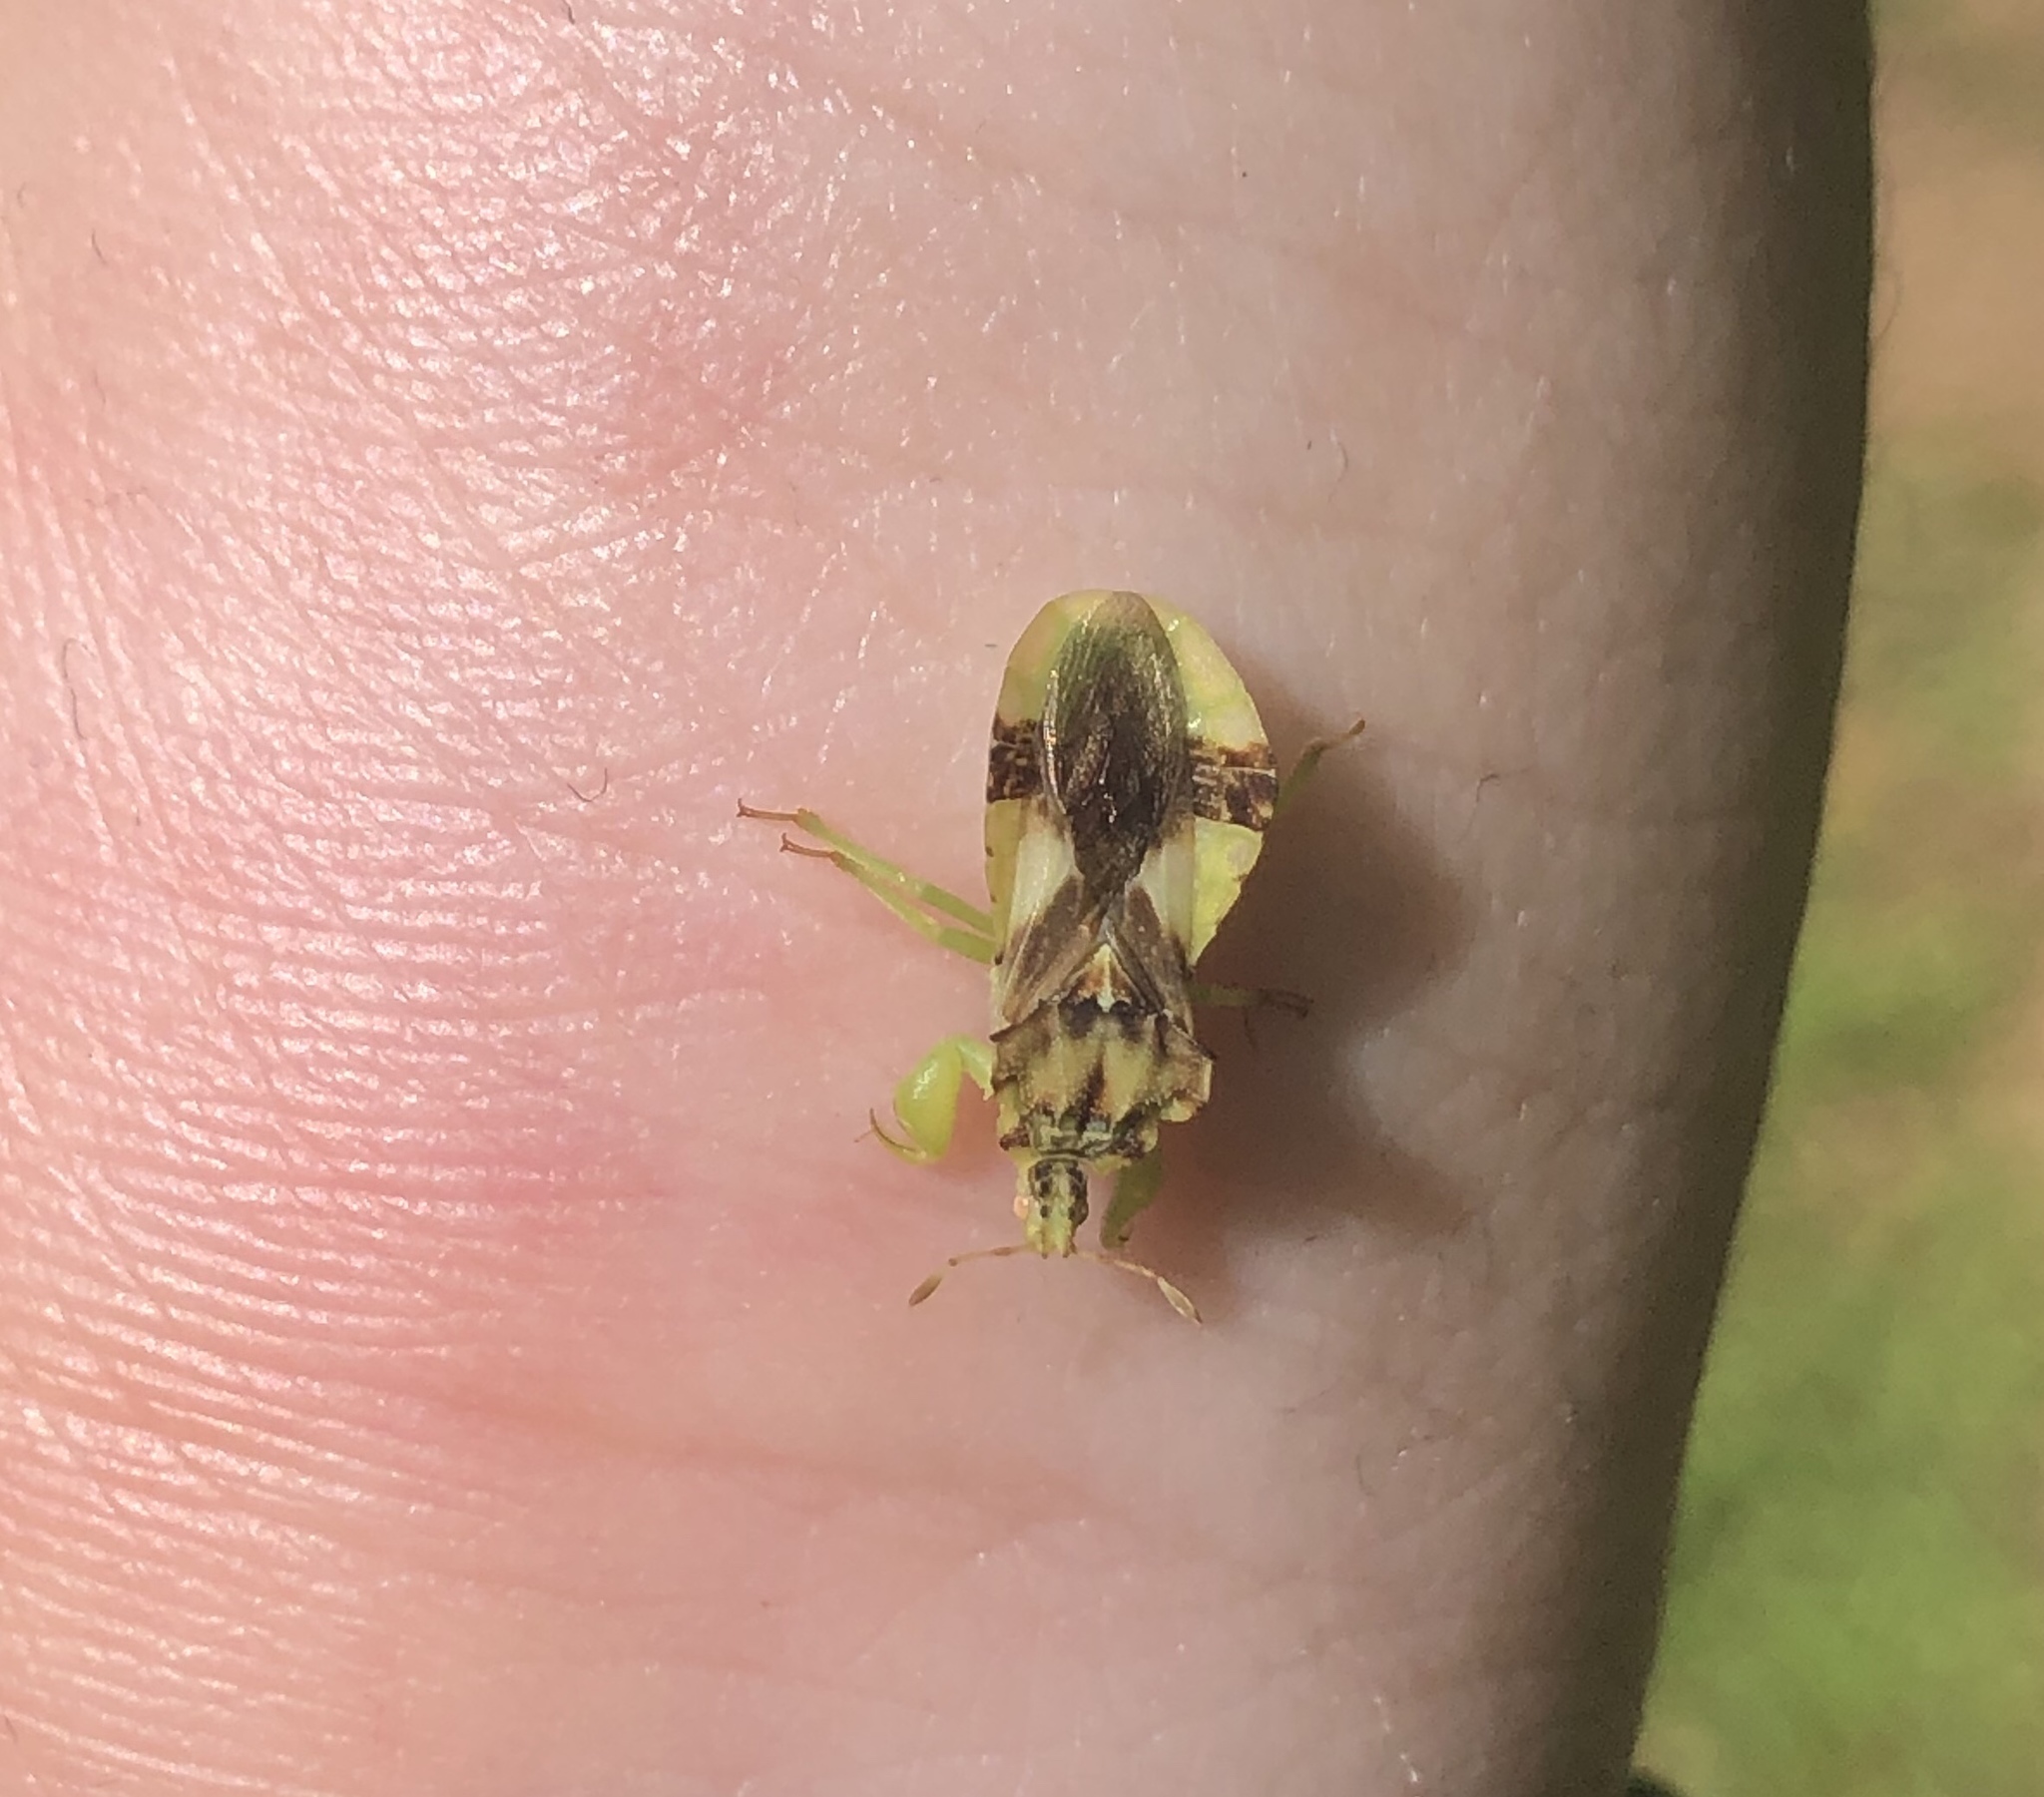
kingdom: Animalia
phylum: Arthropoda
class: Insecta
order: Hemiptera
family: Reduviidae
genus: Phymata
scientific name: Phymata americana
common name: Jagged ambush bug
